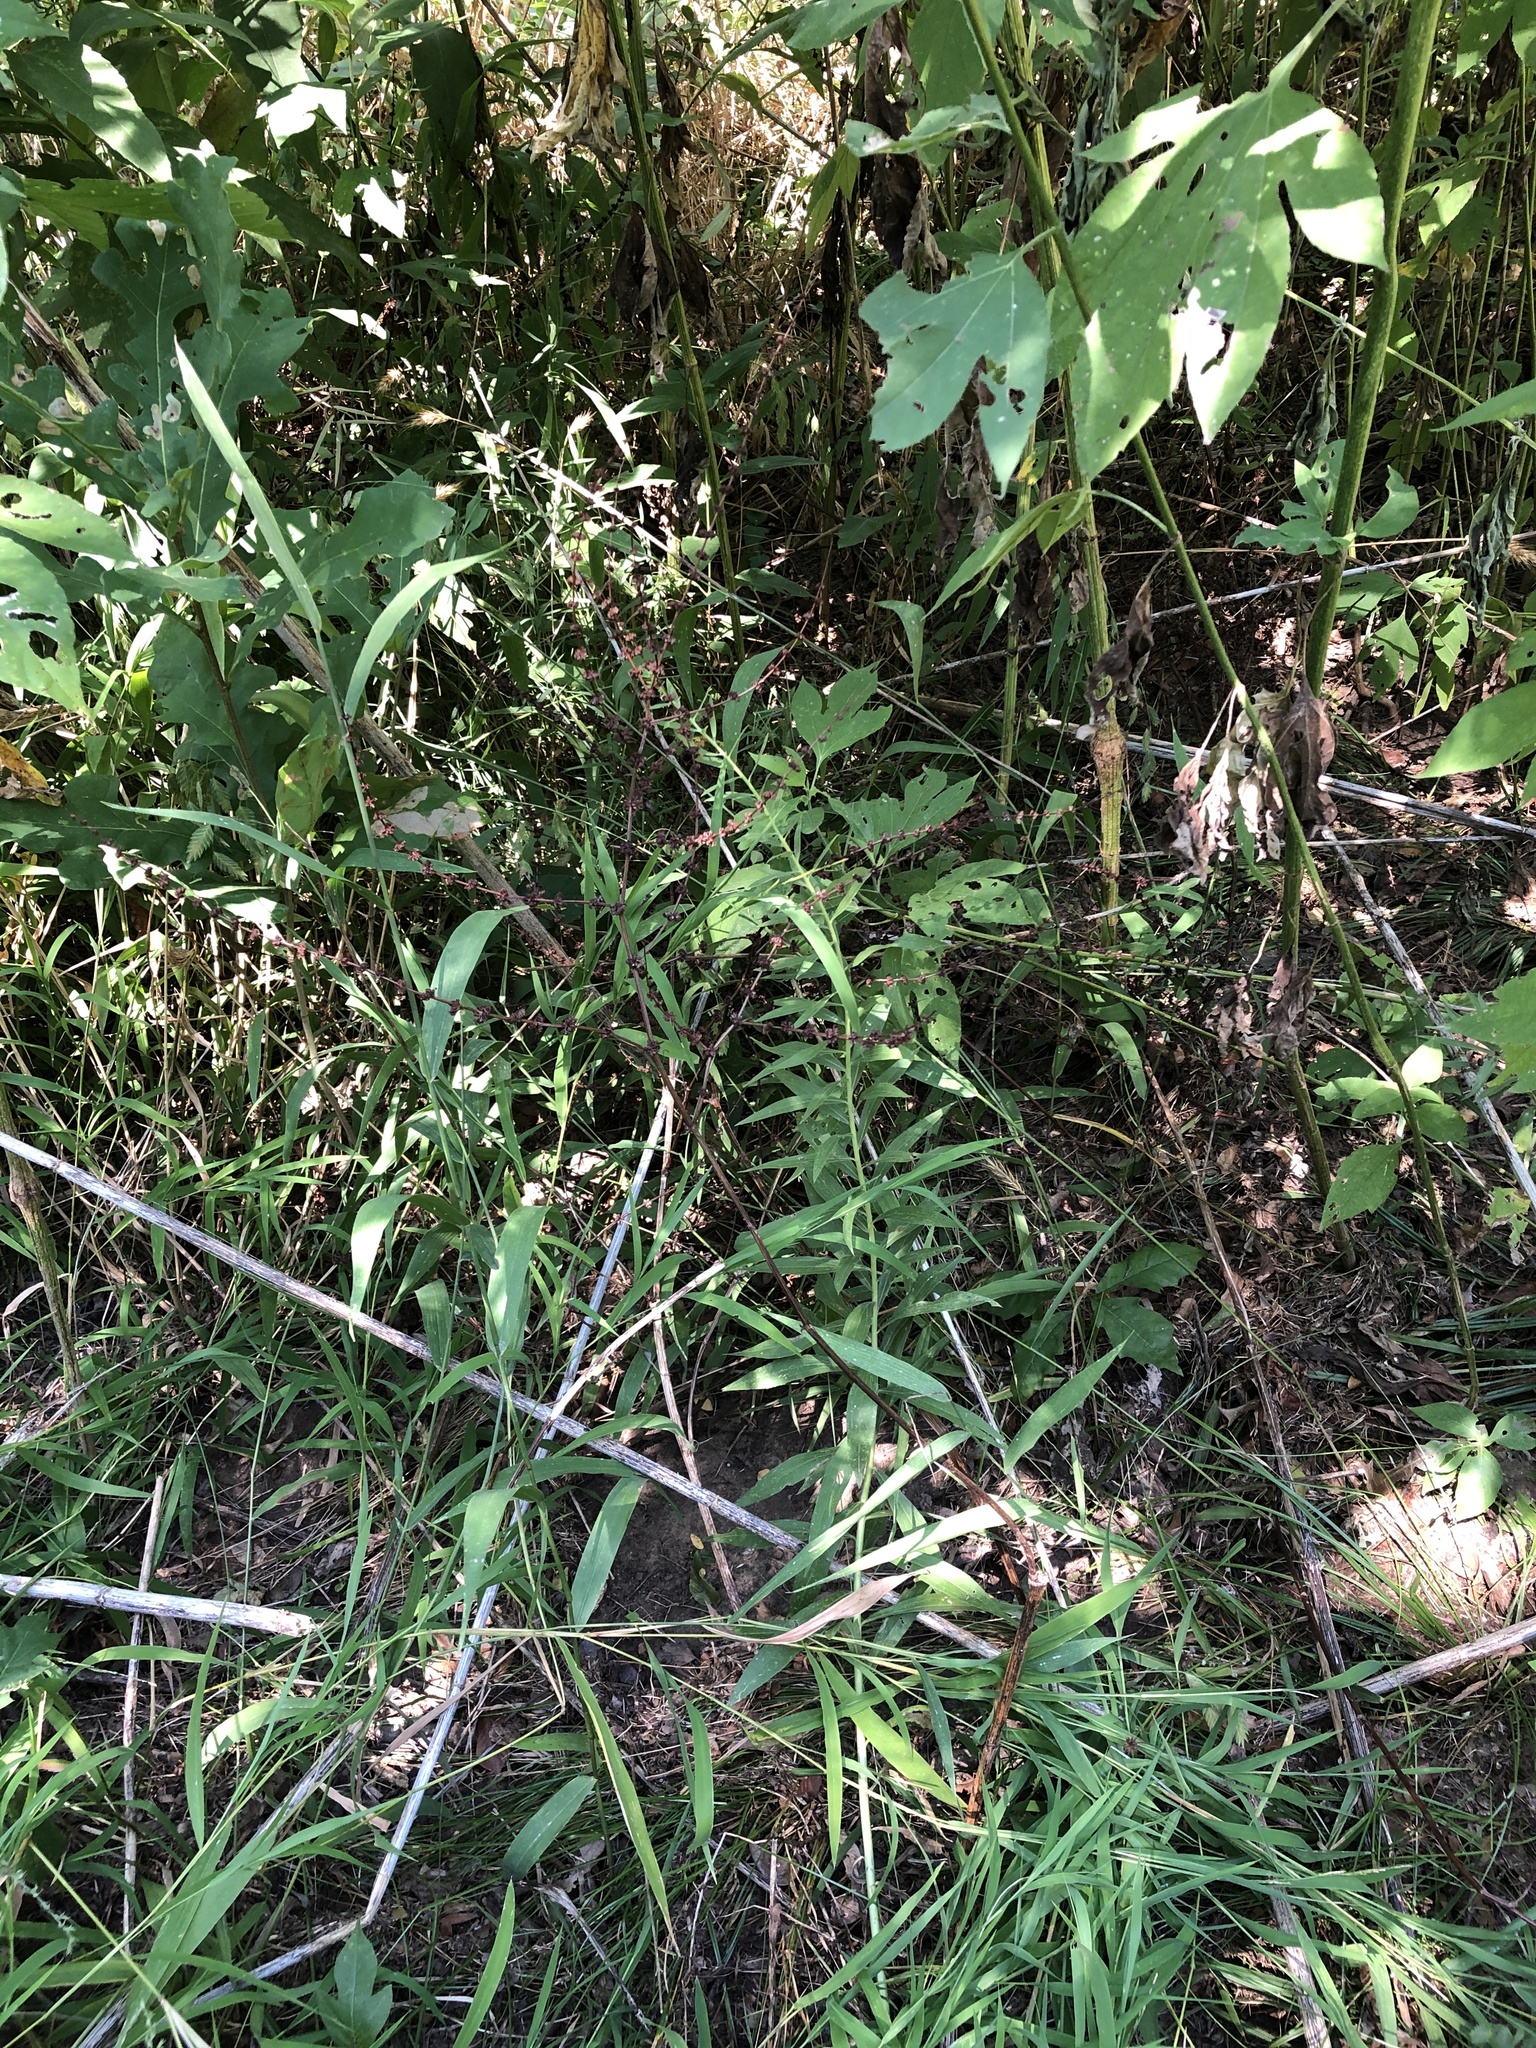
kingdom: Plantae
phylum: Tracheophyta
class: Magnoliopsida
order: Caryophyllales
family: Polygonaceae
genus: Rumex
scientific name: Rumex pulcher
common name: Fiddle dock
